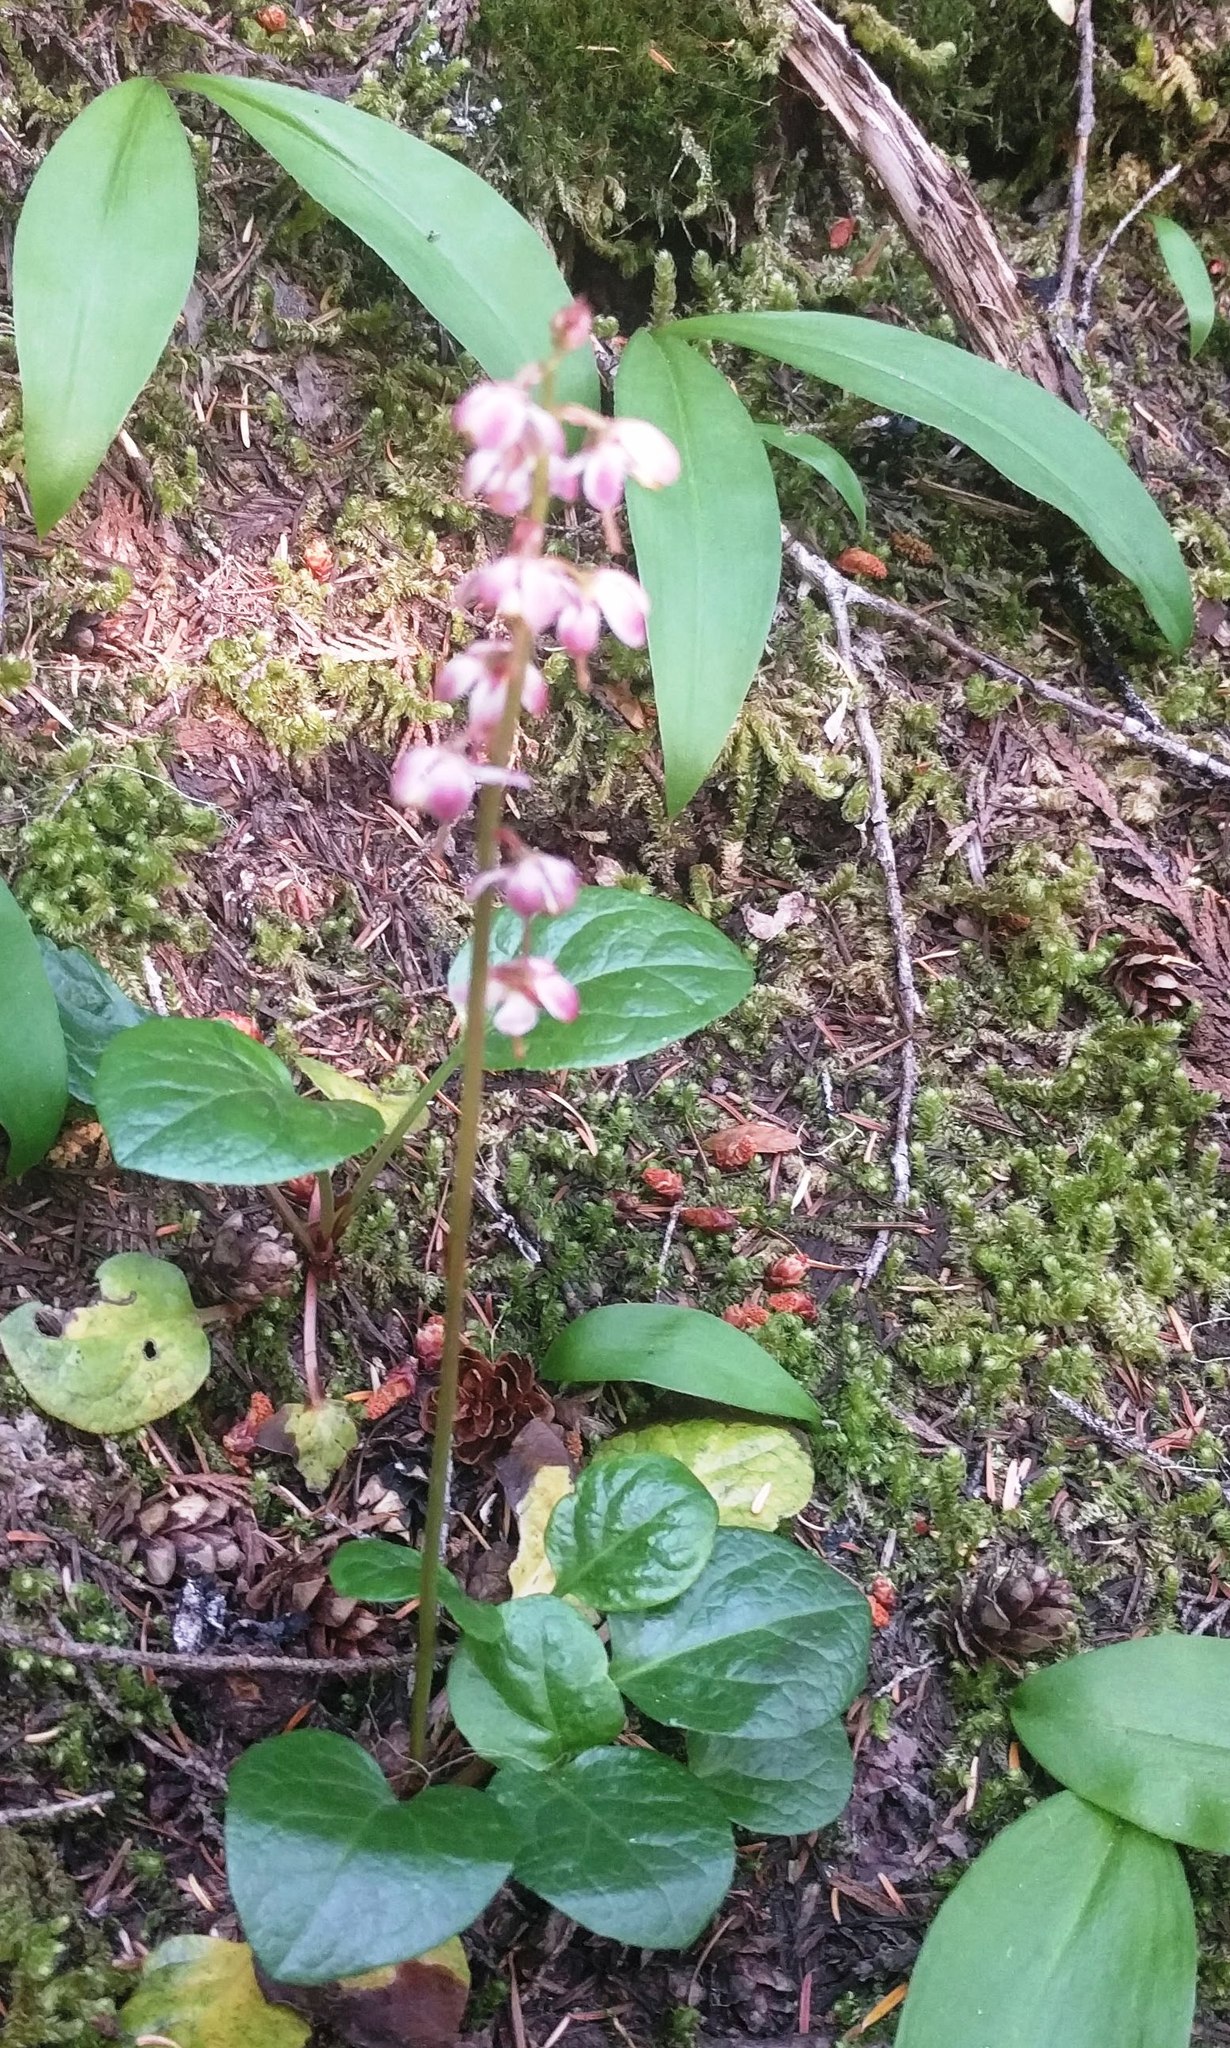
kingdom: Plantae
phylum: Tracheophyta
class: Magnoliopsida
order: Ericales
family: Ericaceae
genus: Pyrola
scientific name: Pyrola asarifolia
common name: Bog wintergreen
